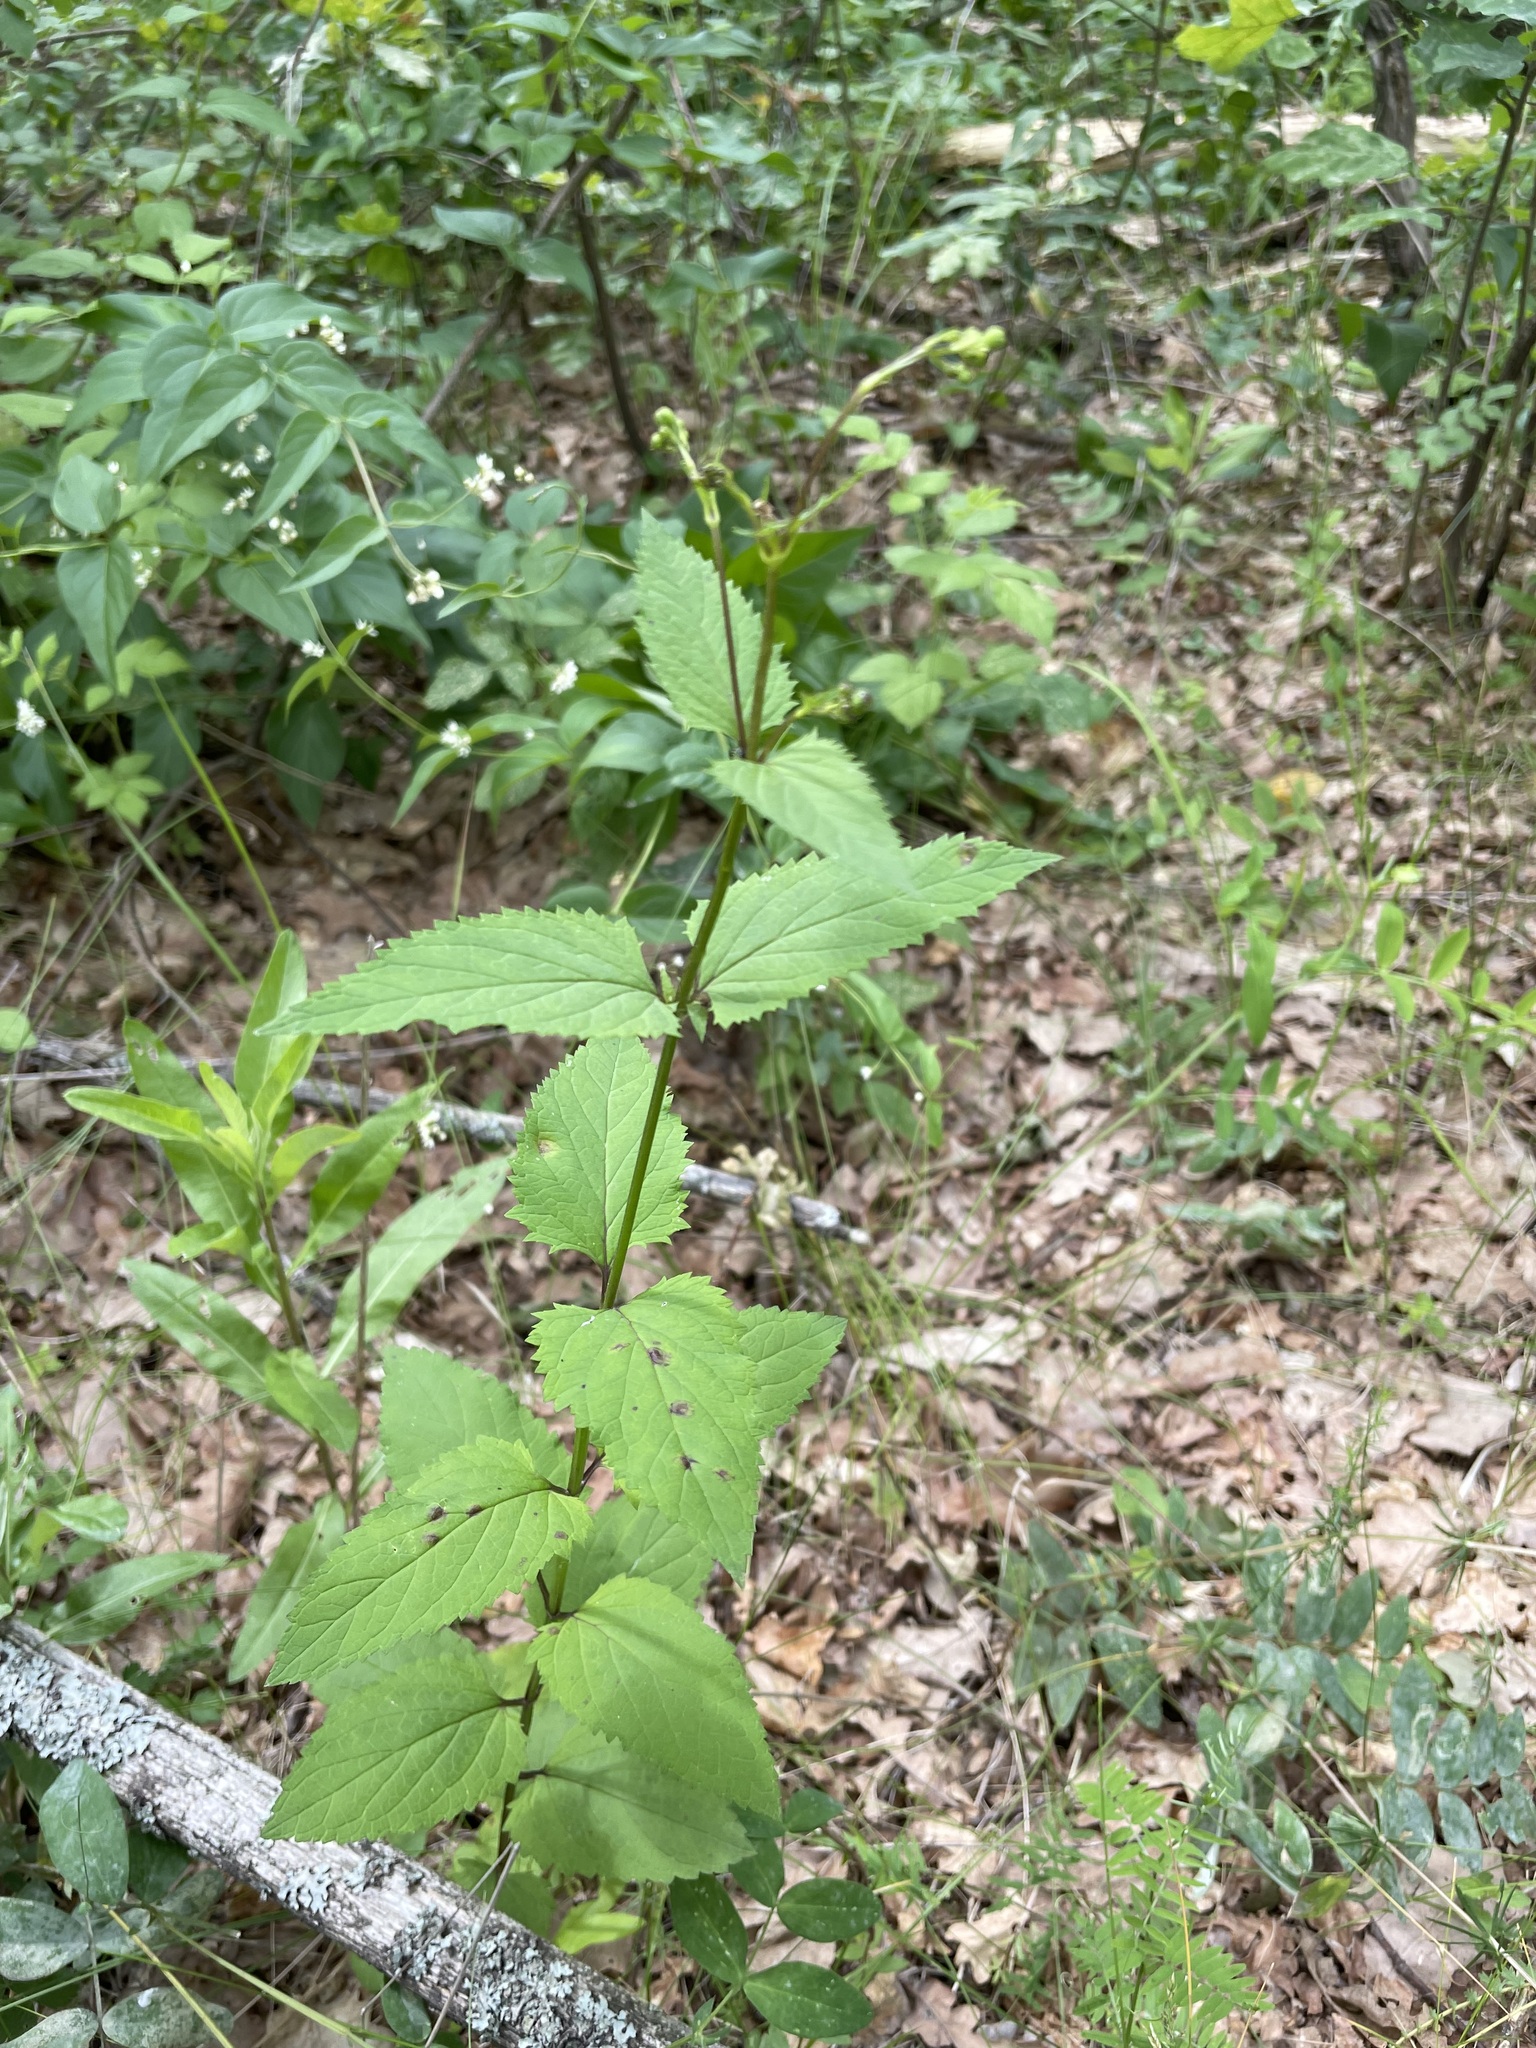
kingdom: Plantae
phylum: Tracheophyta
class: Magnoliopsida
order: Lamiales
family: Scrophulariaceae
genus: Scrophularia
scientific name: Scrophularia nodosa
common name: Common figwort
